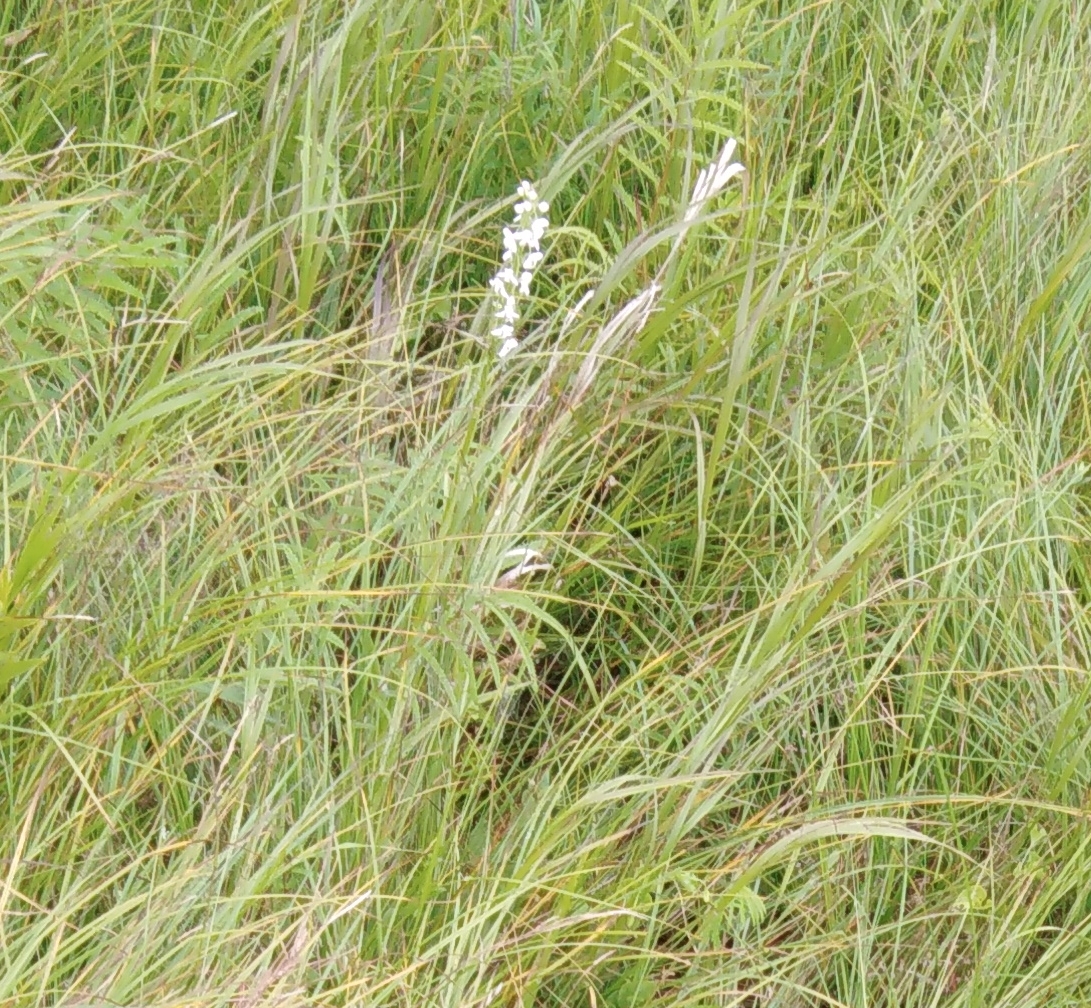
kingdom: Plantae
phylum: Tracheophyta
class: Liliopsida
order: Asparagales
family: Orchidaceae
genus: Platanthera
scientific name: Platanthera hologlottis
